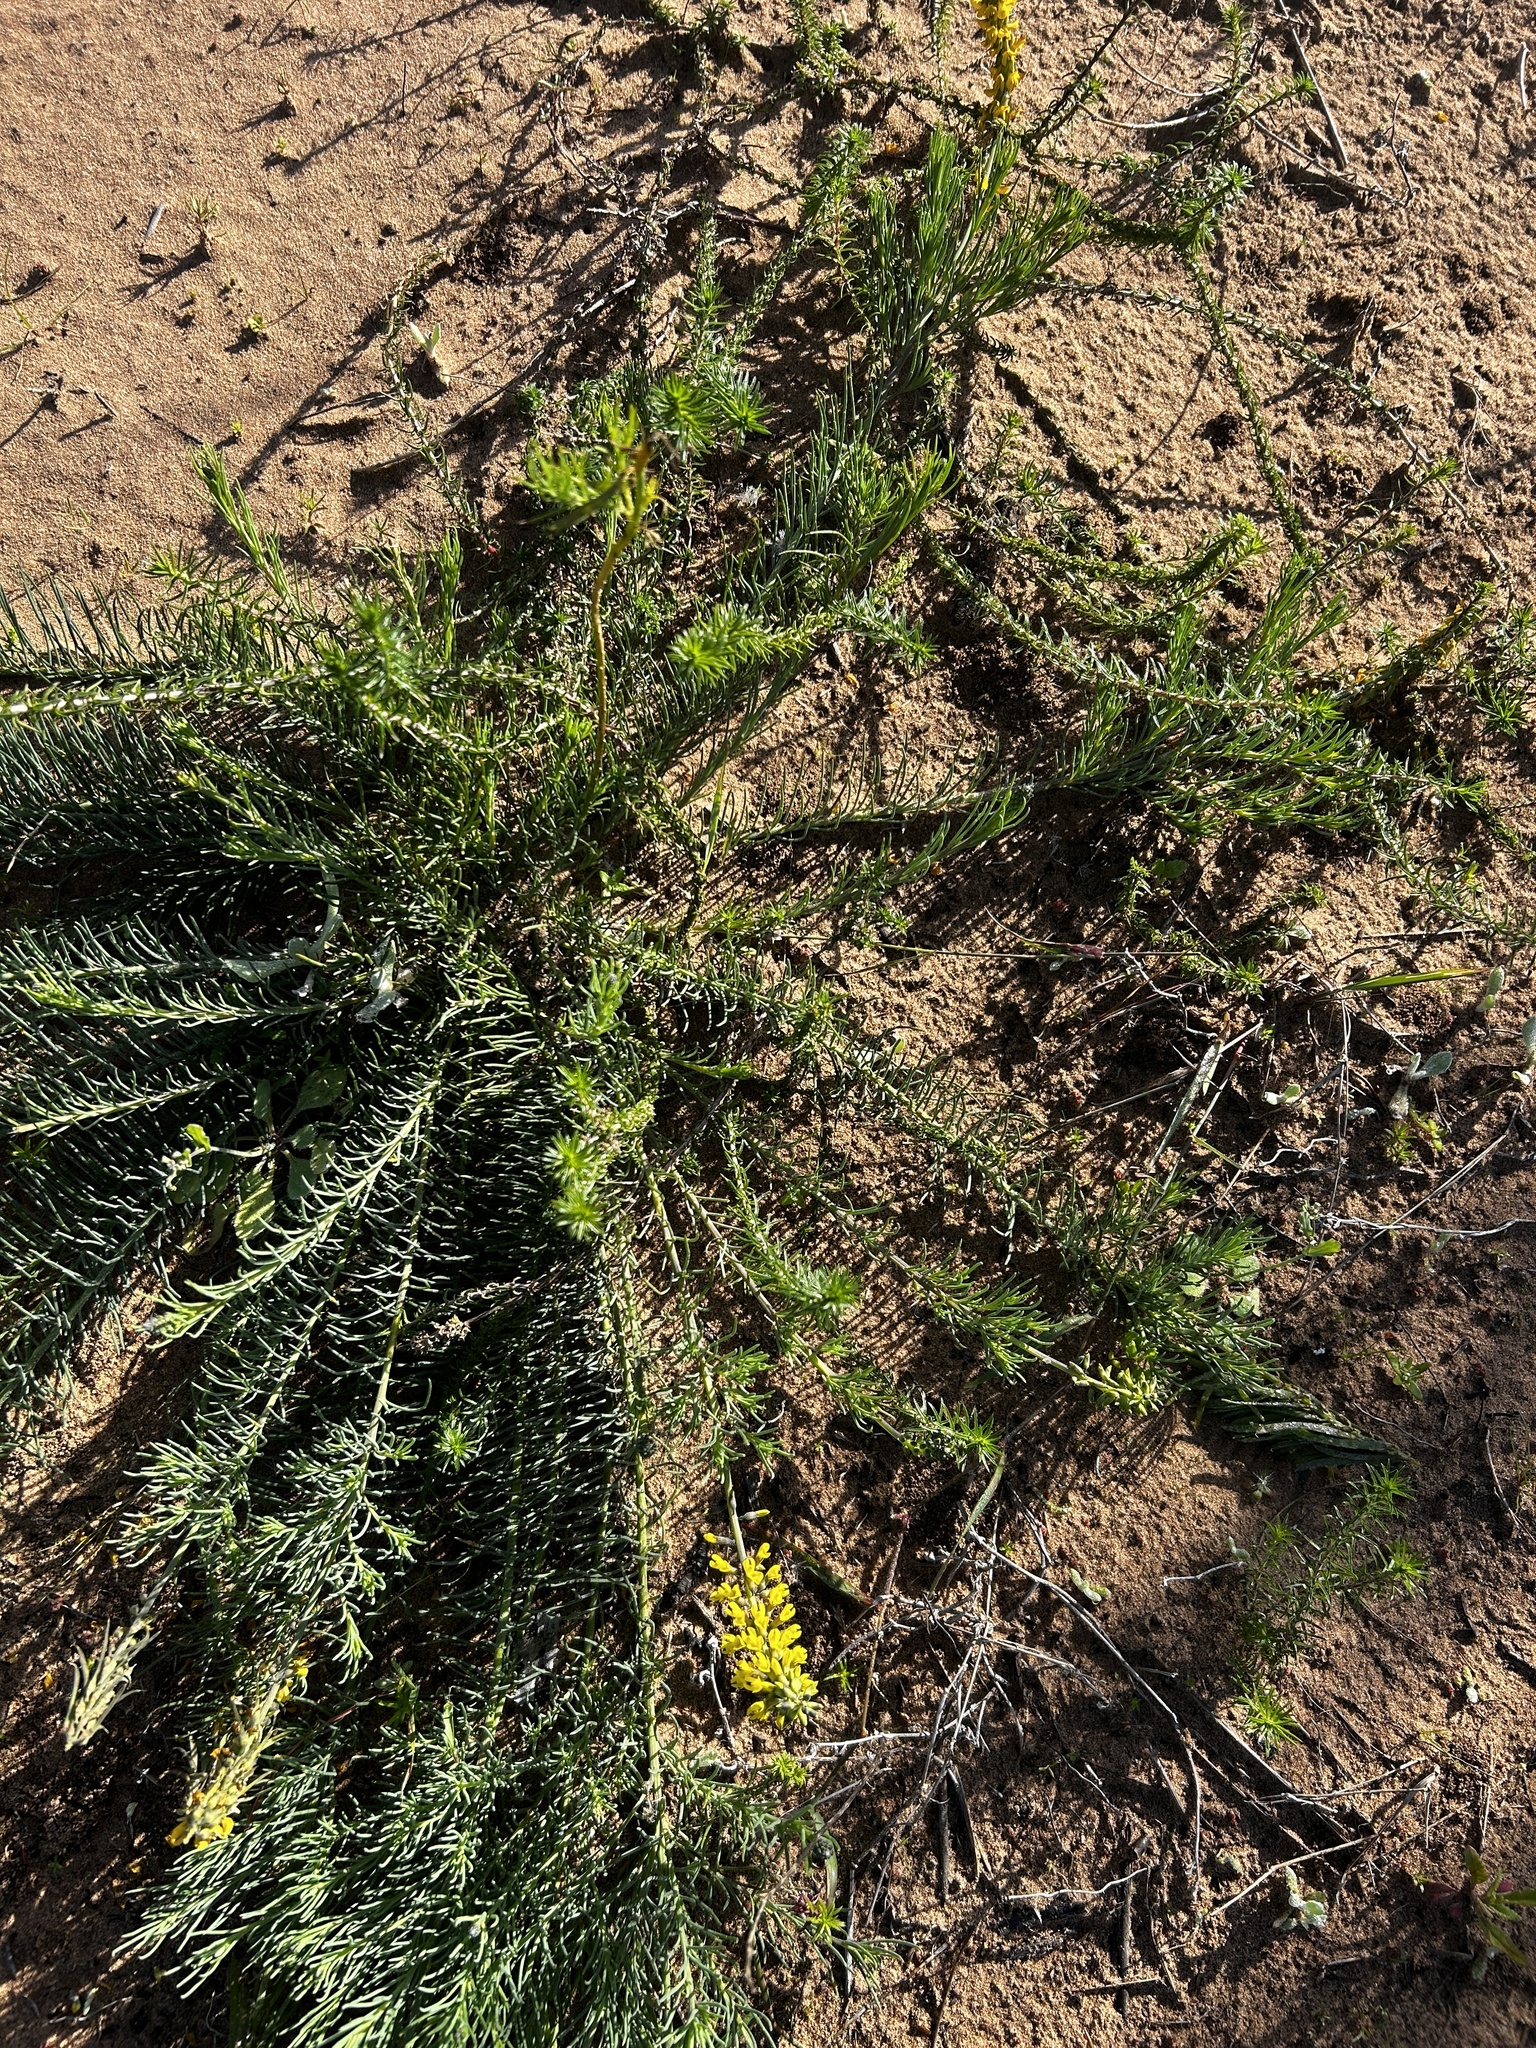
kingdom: Plantae
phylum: Tracheophyta
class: Magnoliopsida
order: Fabales
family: Fabaceae
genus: Lebeckia
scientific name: Lebeckia gracilis
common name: Slender ganna
